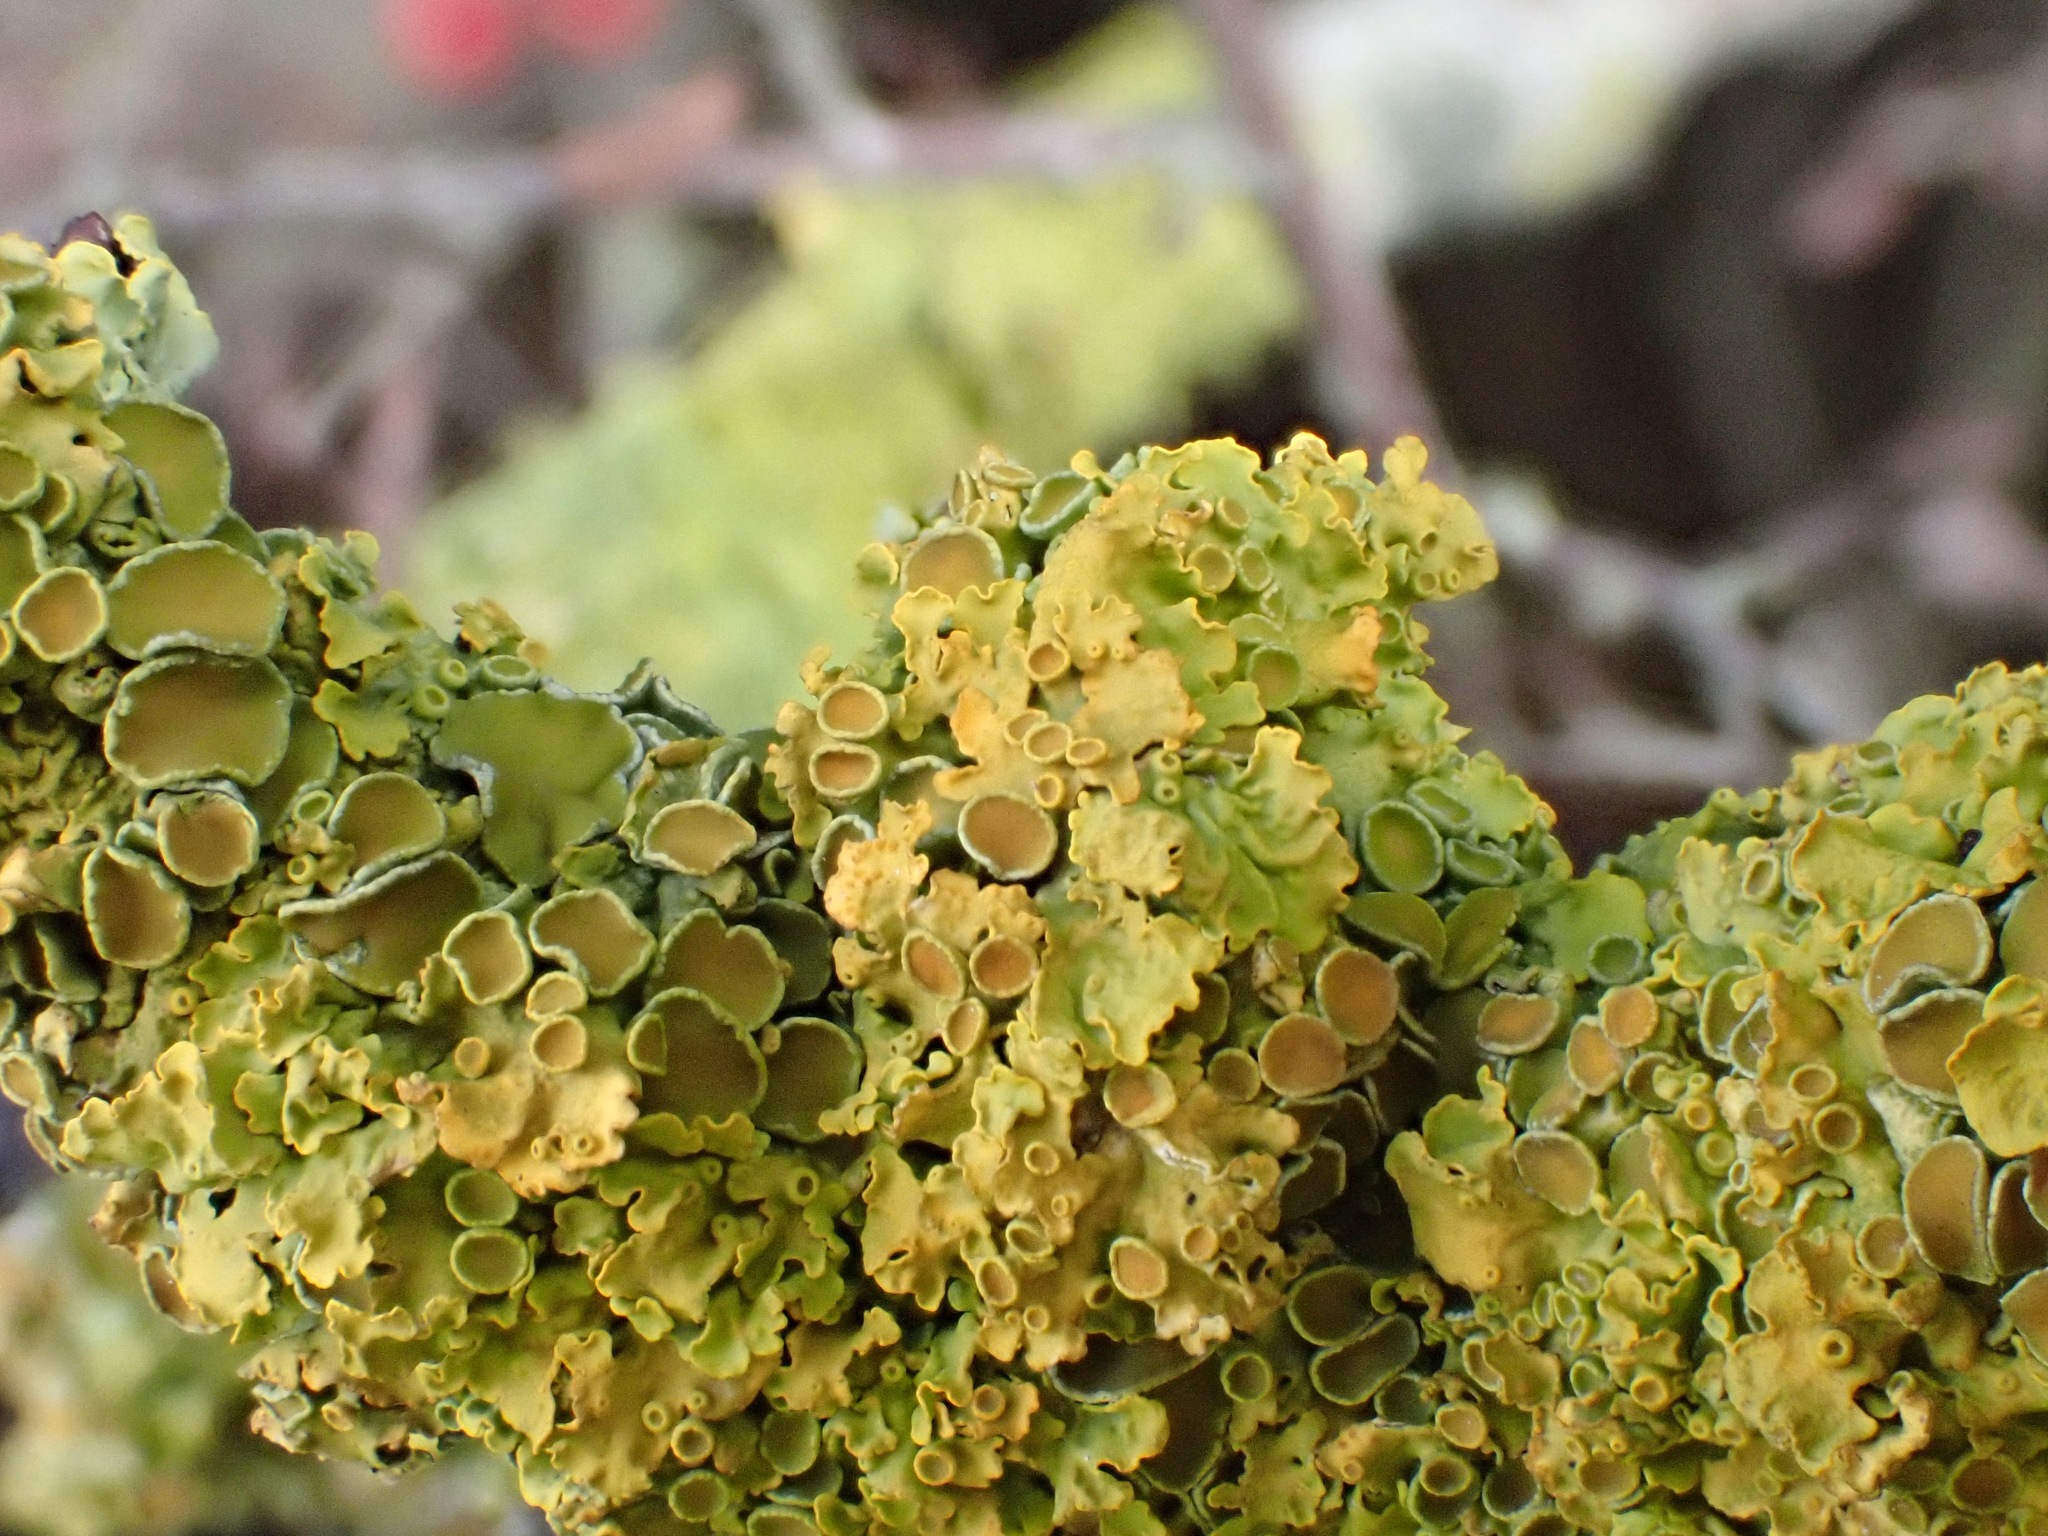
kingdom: Fungi
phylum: Ascomycota
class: Lecanoromycetes
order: Teloschistales
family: Teloschistaceae
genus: Xanthoria
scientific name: Xanthoria parietina
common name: Common orange lichen
